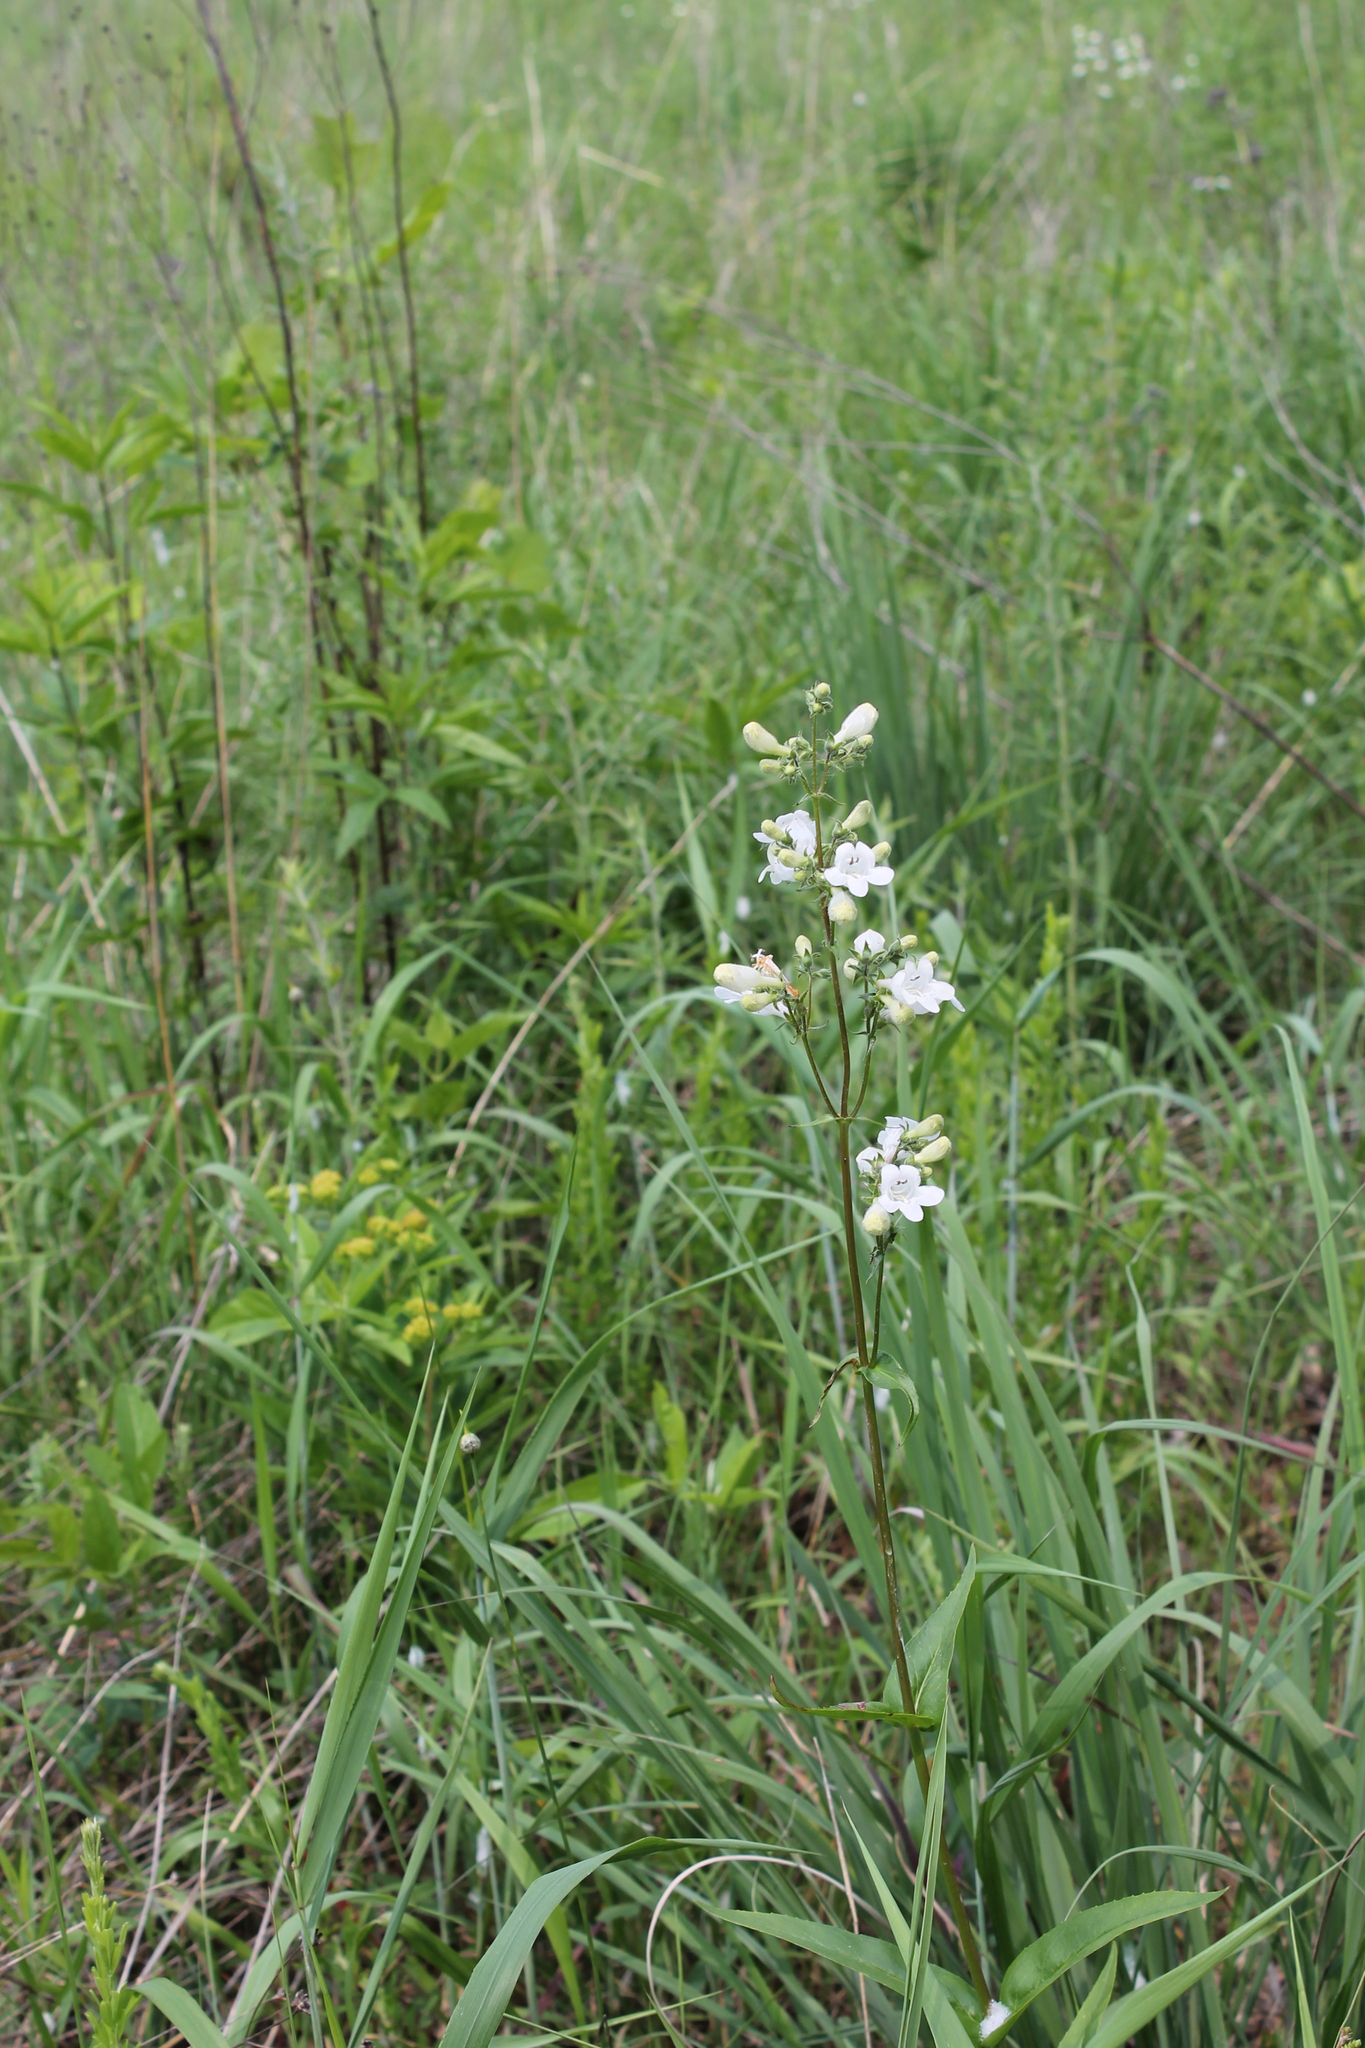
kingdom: Plantae
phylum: Tracheophyta
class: Magnoliopsida
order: Lamiales
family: Plantaginaceae
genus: Penstemon
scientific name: Penstemon digitalis
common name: Foxglove beardtongue
